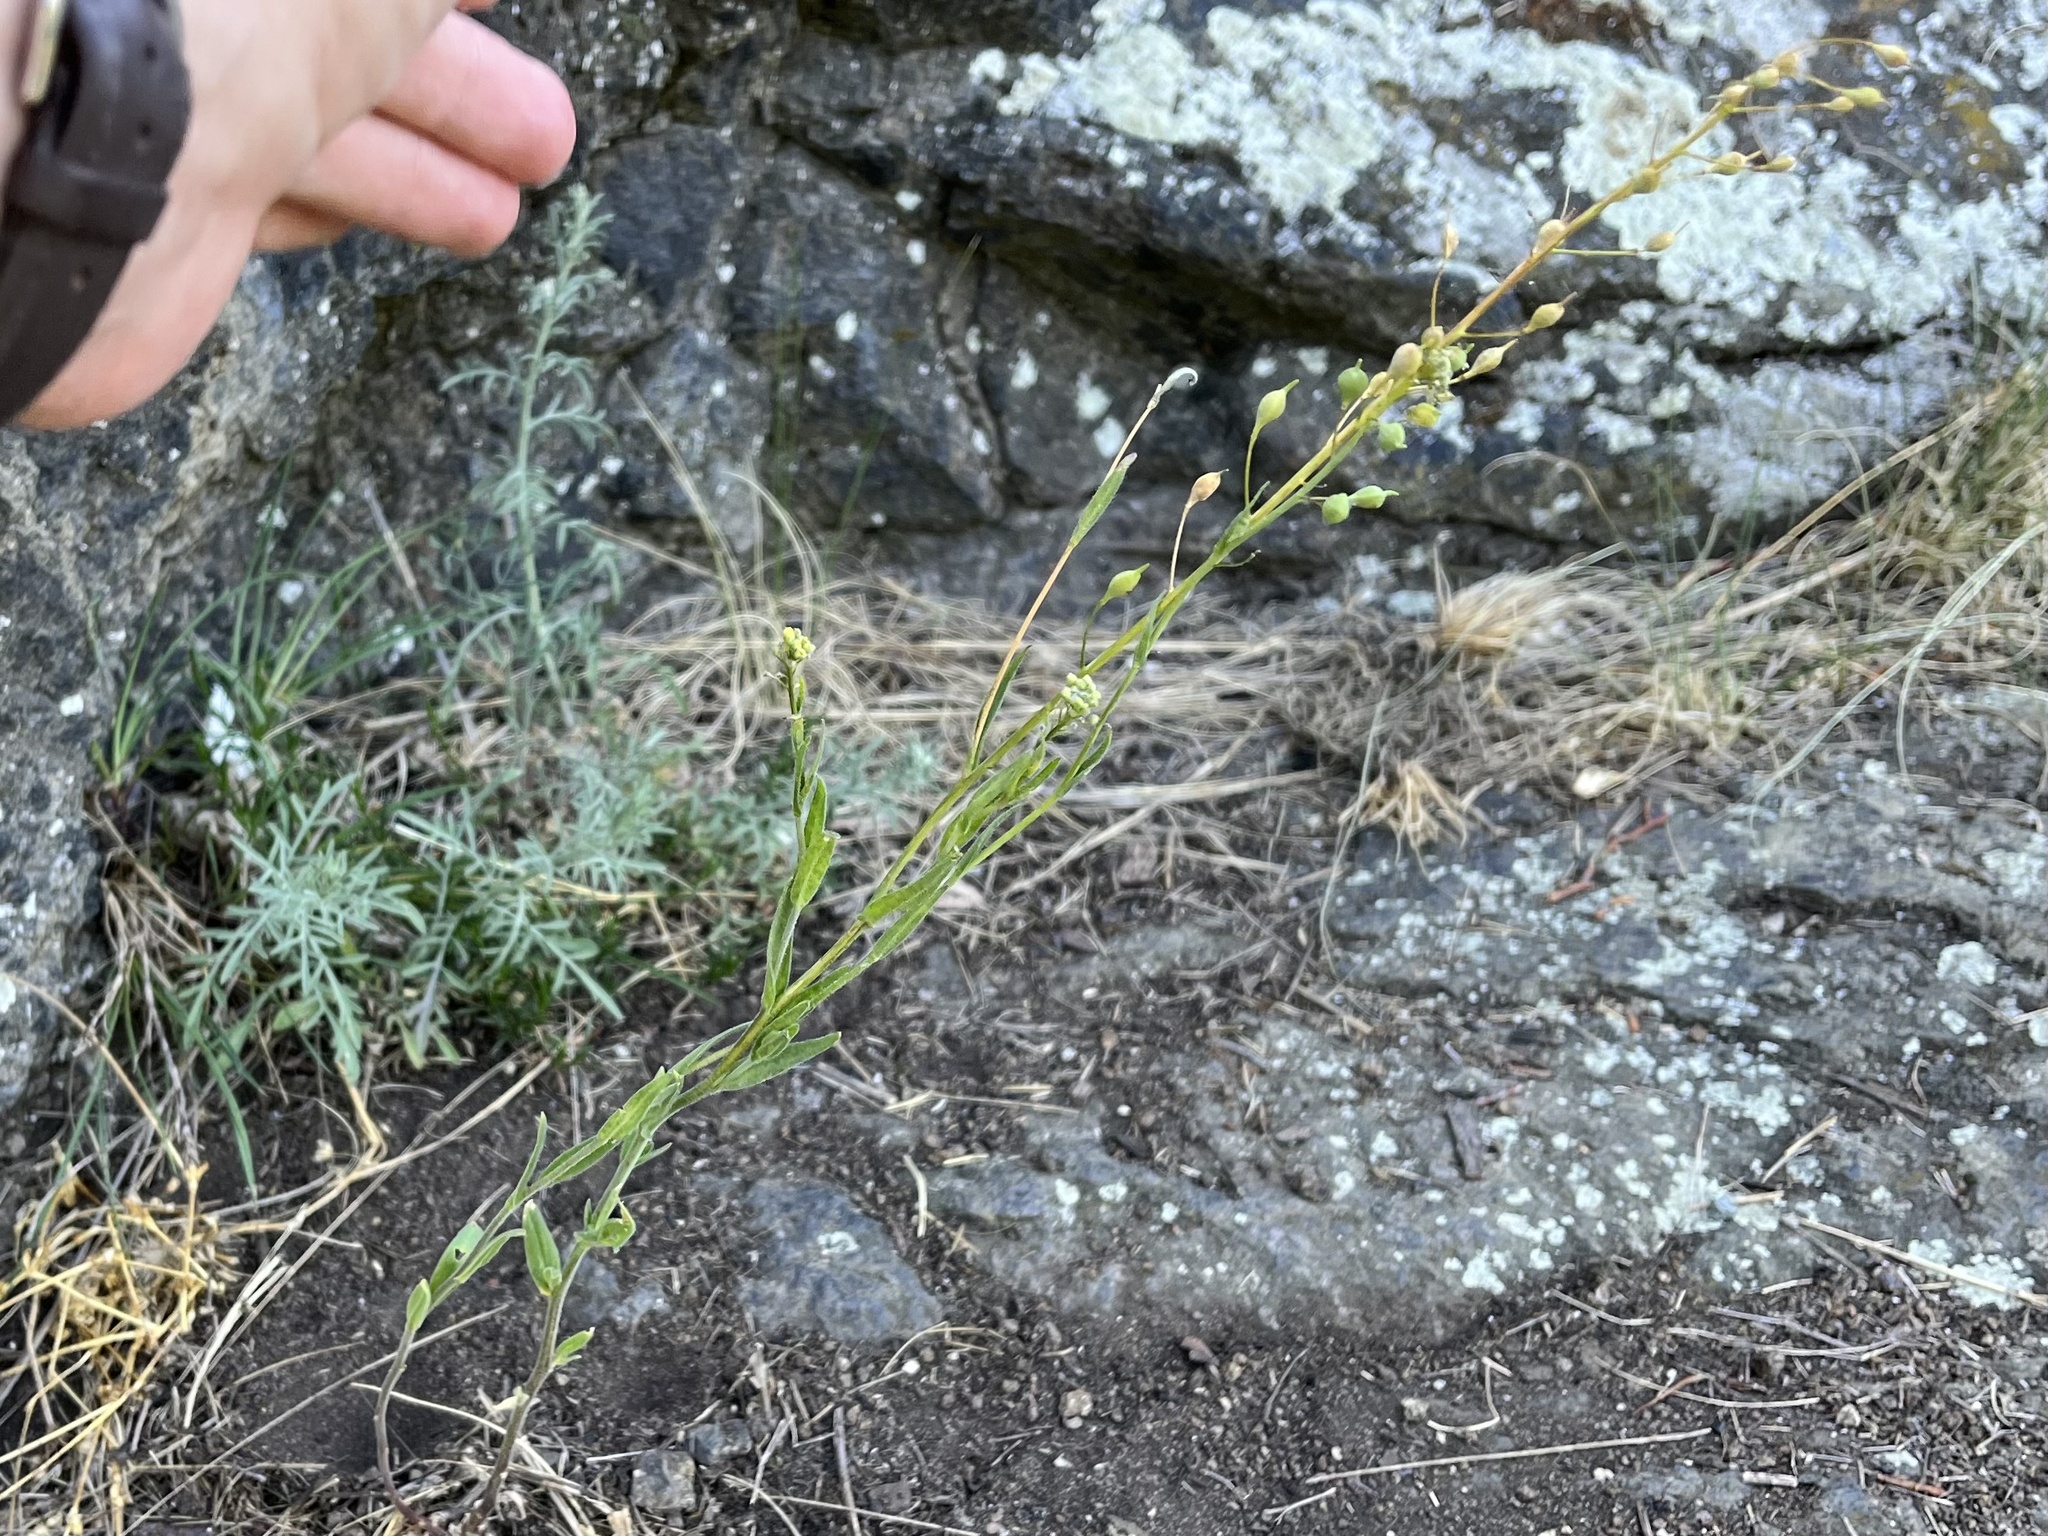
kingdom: Plantae
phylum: Tracheophyta
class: Magnoliopsida
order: Brassicales
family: Brassicaceae
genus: Camelina
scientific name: Camelina microcarpa
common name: Lesser gold-of-pleasure
